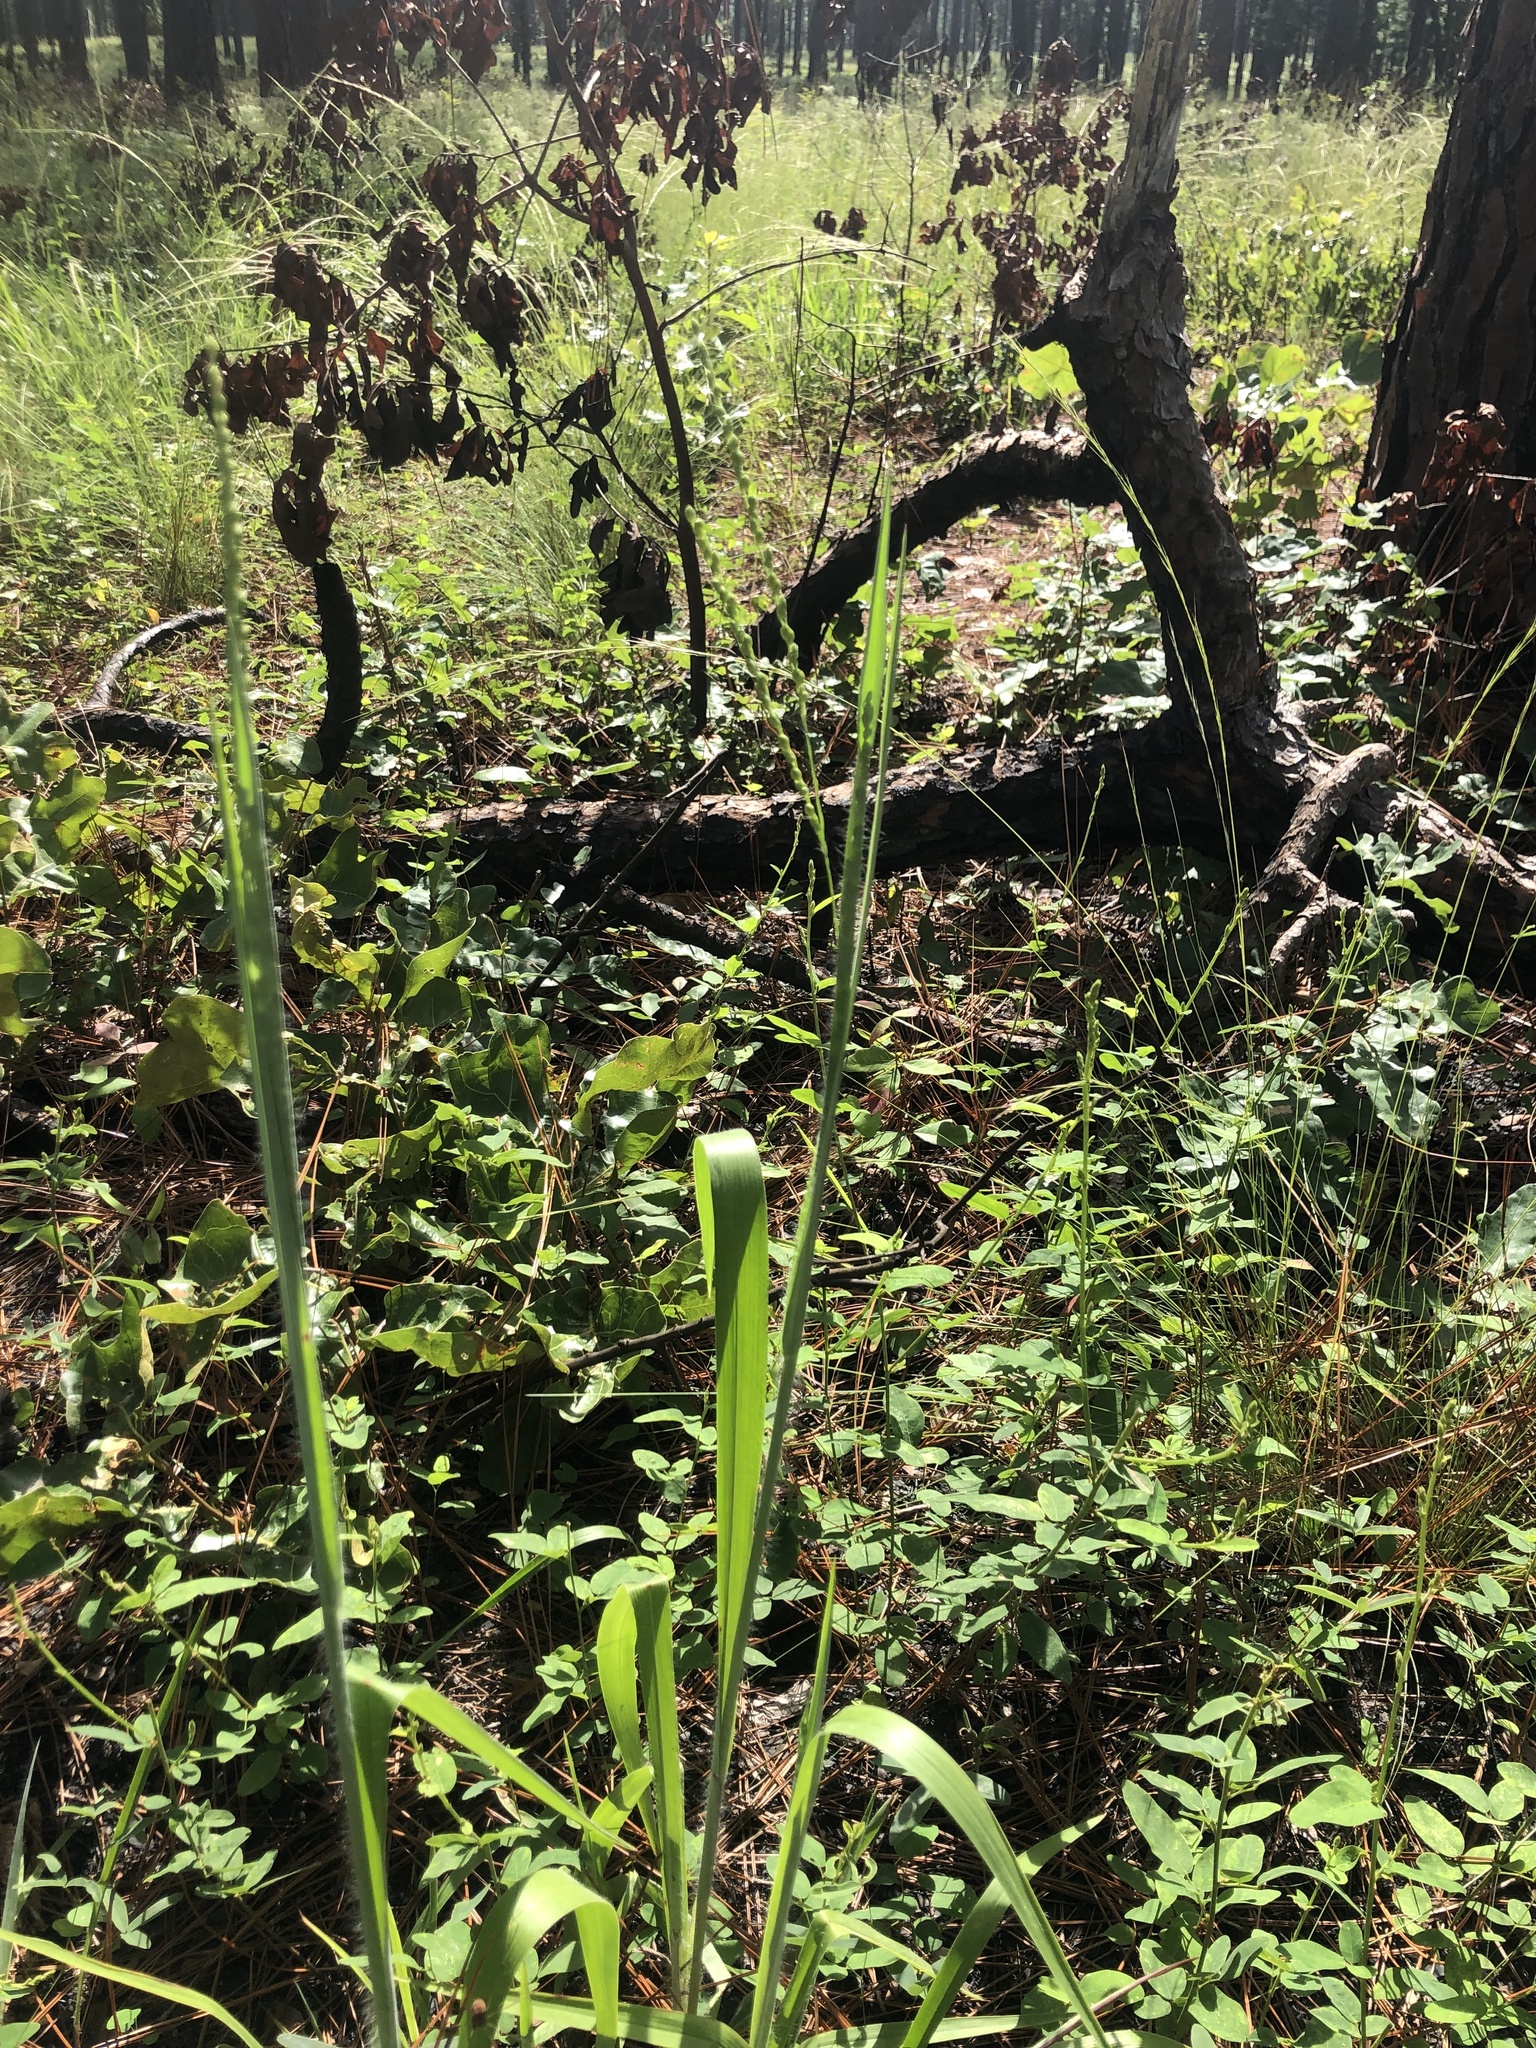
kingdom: Plantae
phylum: Tracheophyta
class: Liliopsida
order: Poales
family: Poaceae
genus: Paspalum
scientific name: Paspalum bifidum
